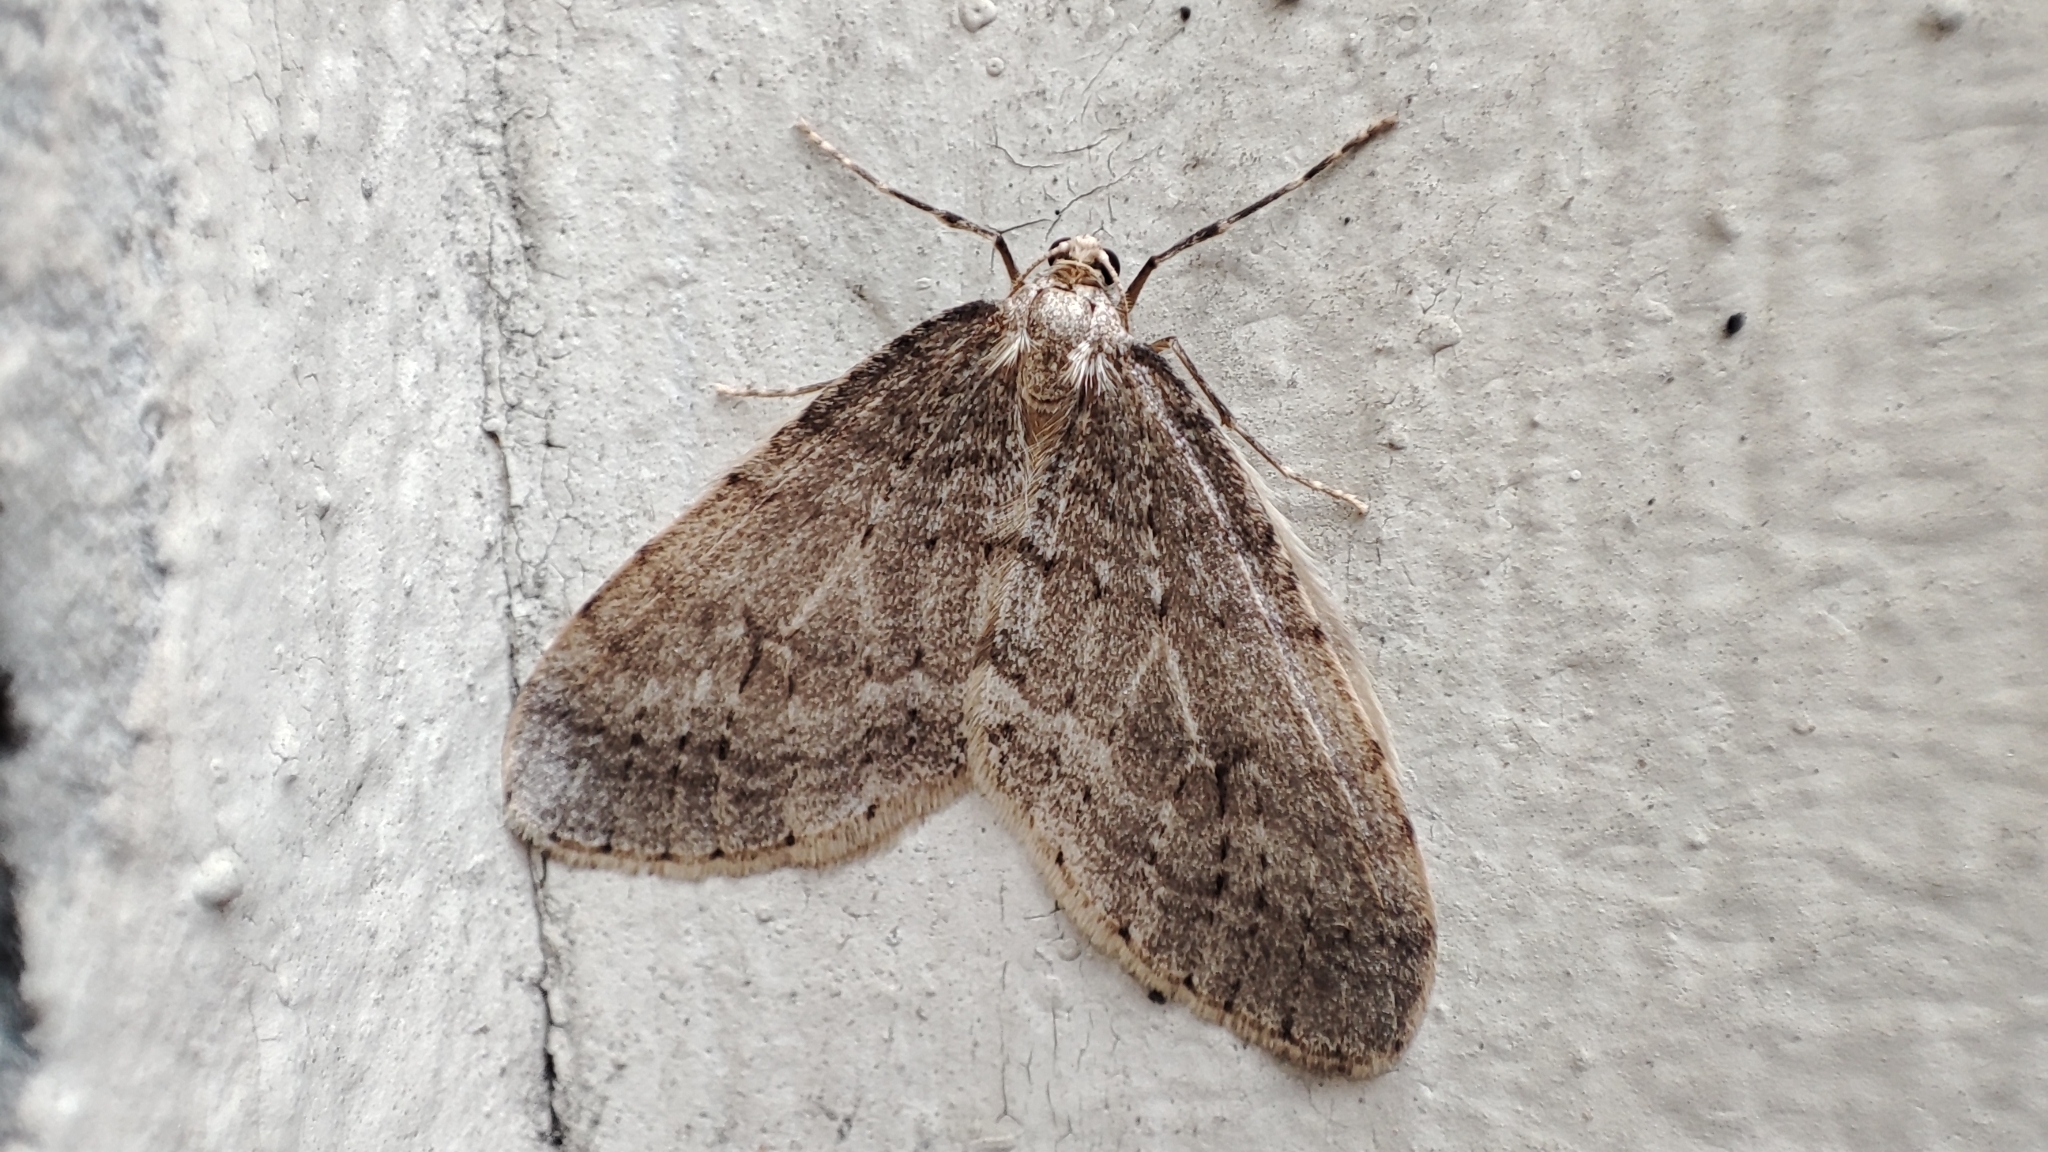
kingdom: Animalia
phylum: Arthropoda
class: Insecta
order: Lepidoptera
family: Geometridae
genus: Operophtera
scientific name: Operophtera brumata
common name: Winter moth
